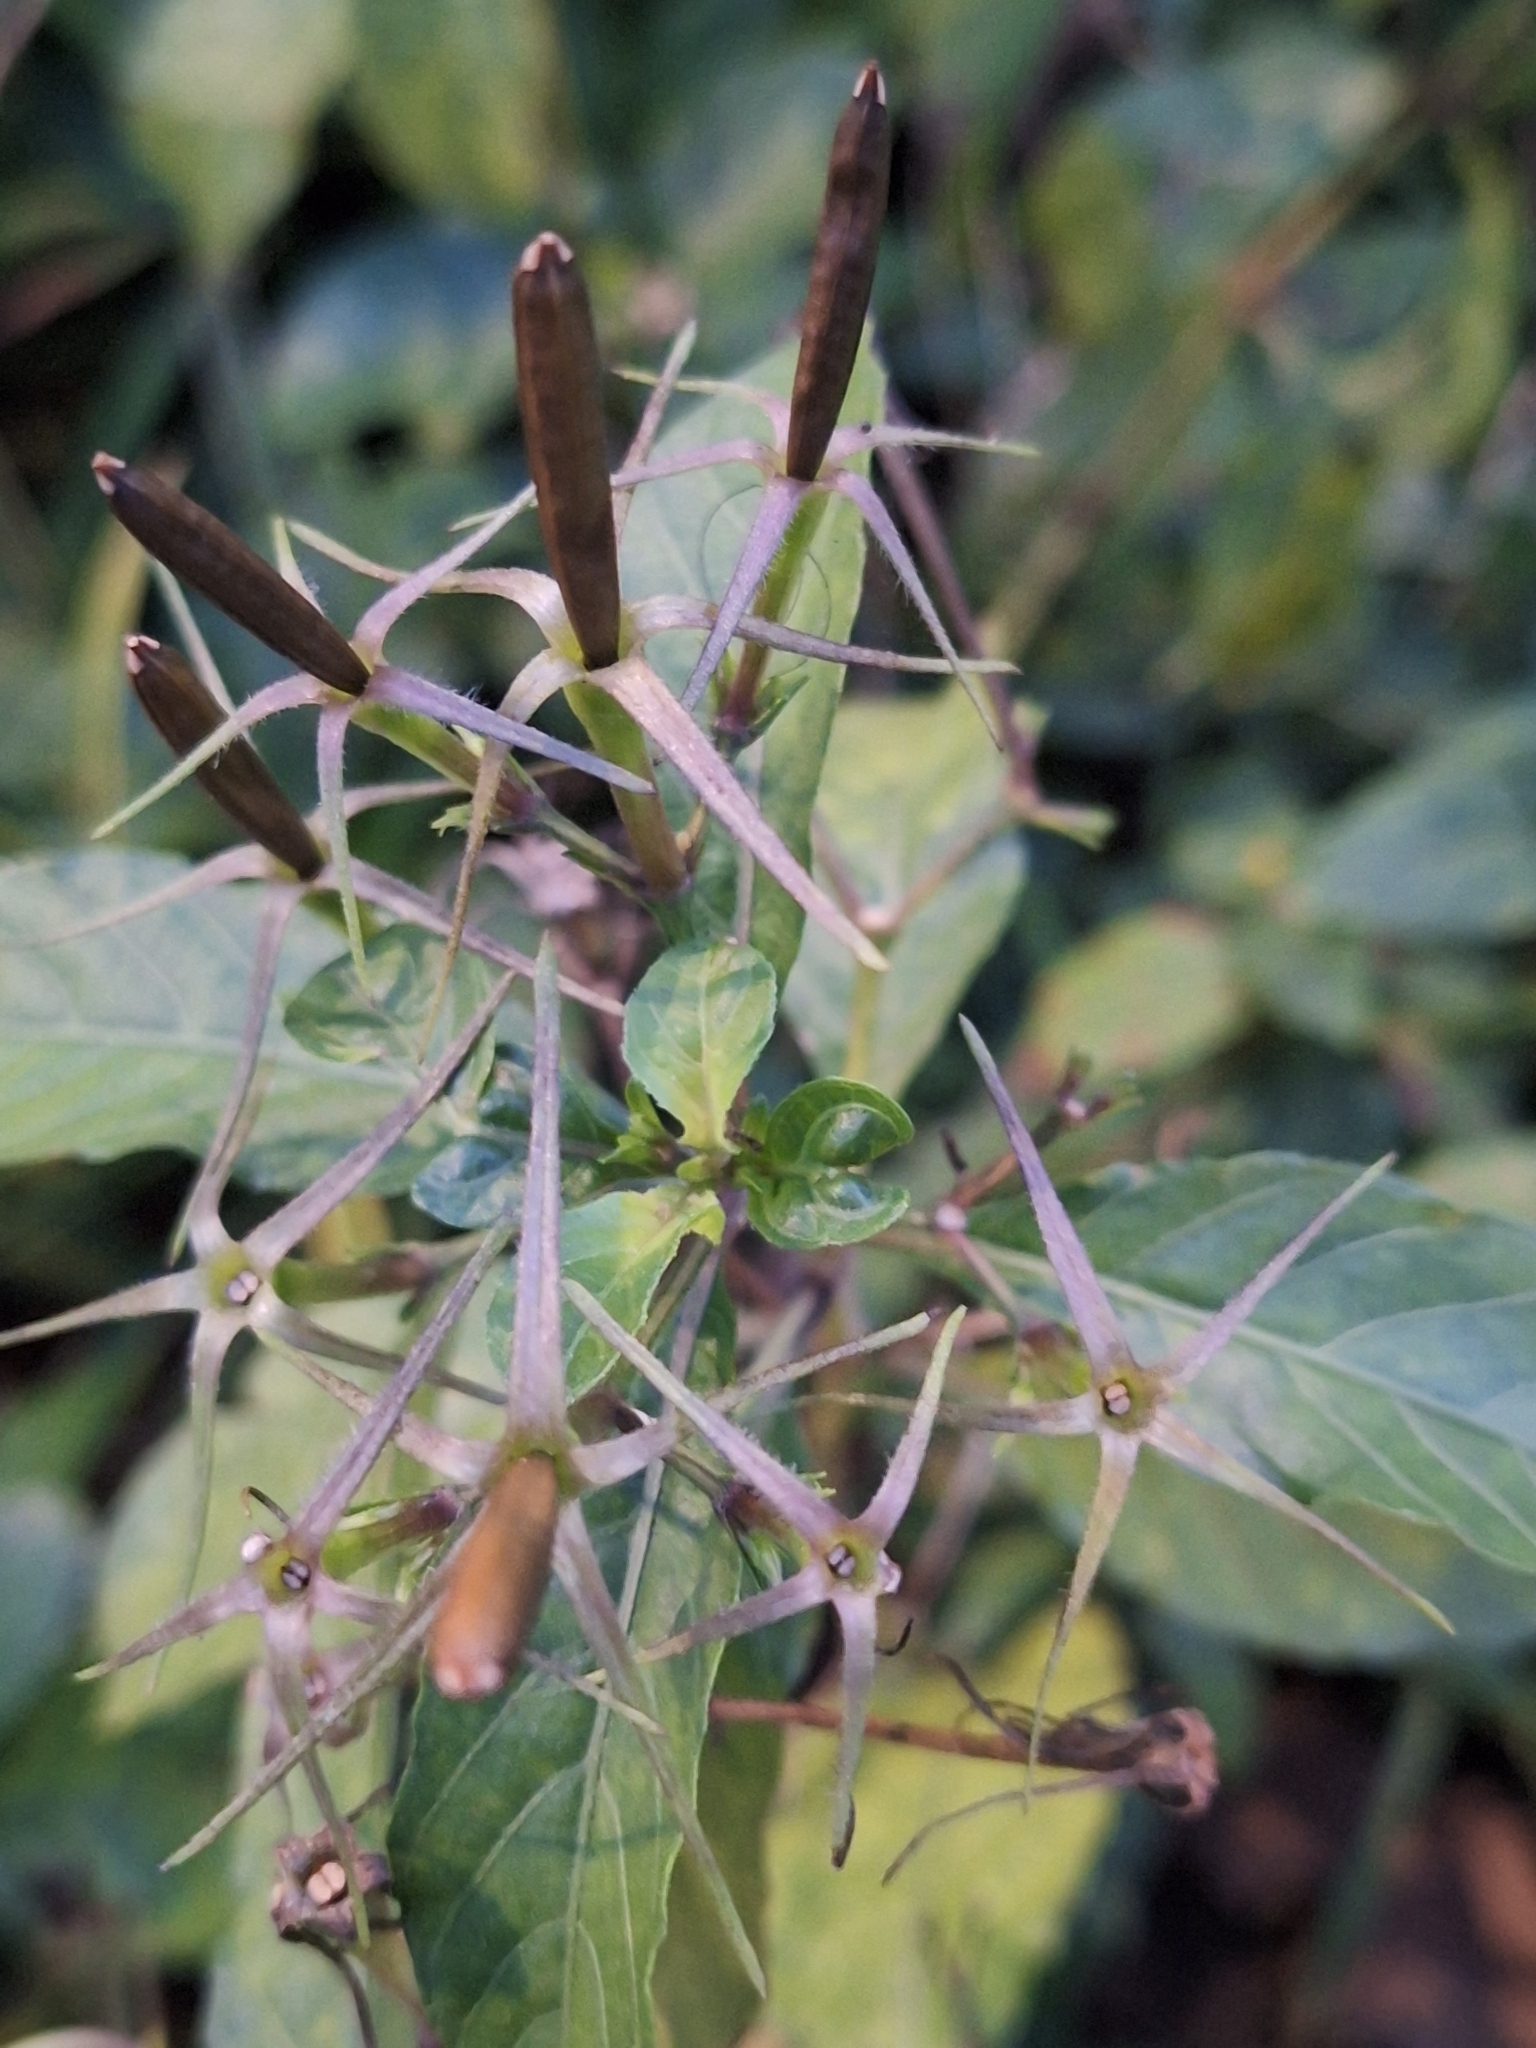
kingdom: Plantae
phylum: Tracheophyta
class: Magnoliopsida
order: Lamiales
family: Acanthaceae
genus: Ruellia
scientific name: Ruellia tuberosa
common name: Devil's bit
